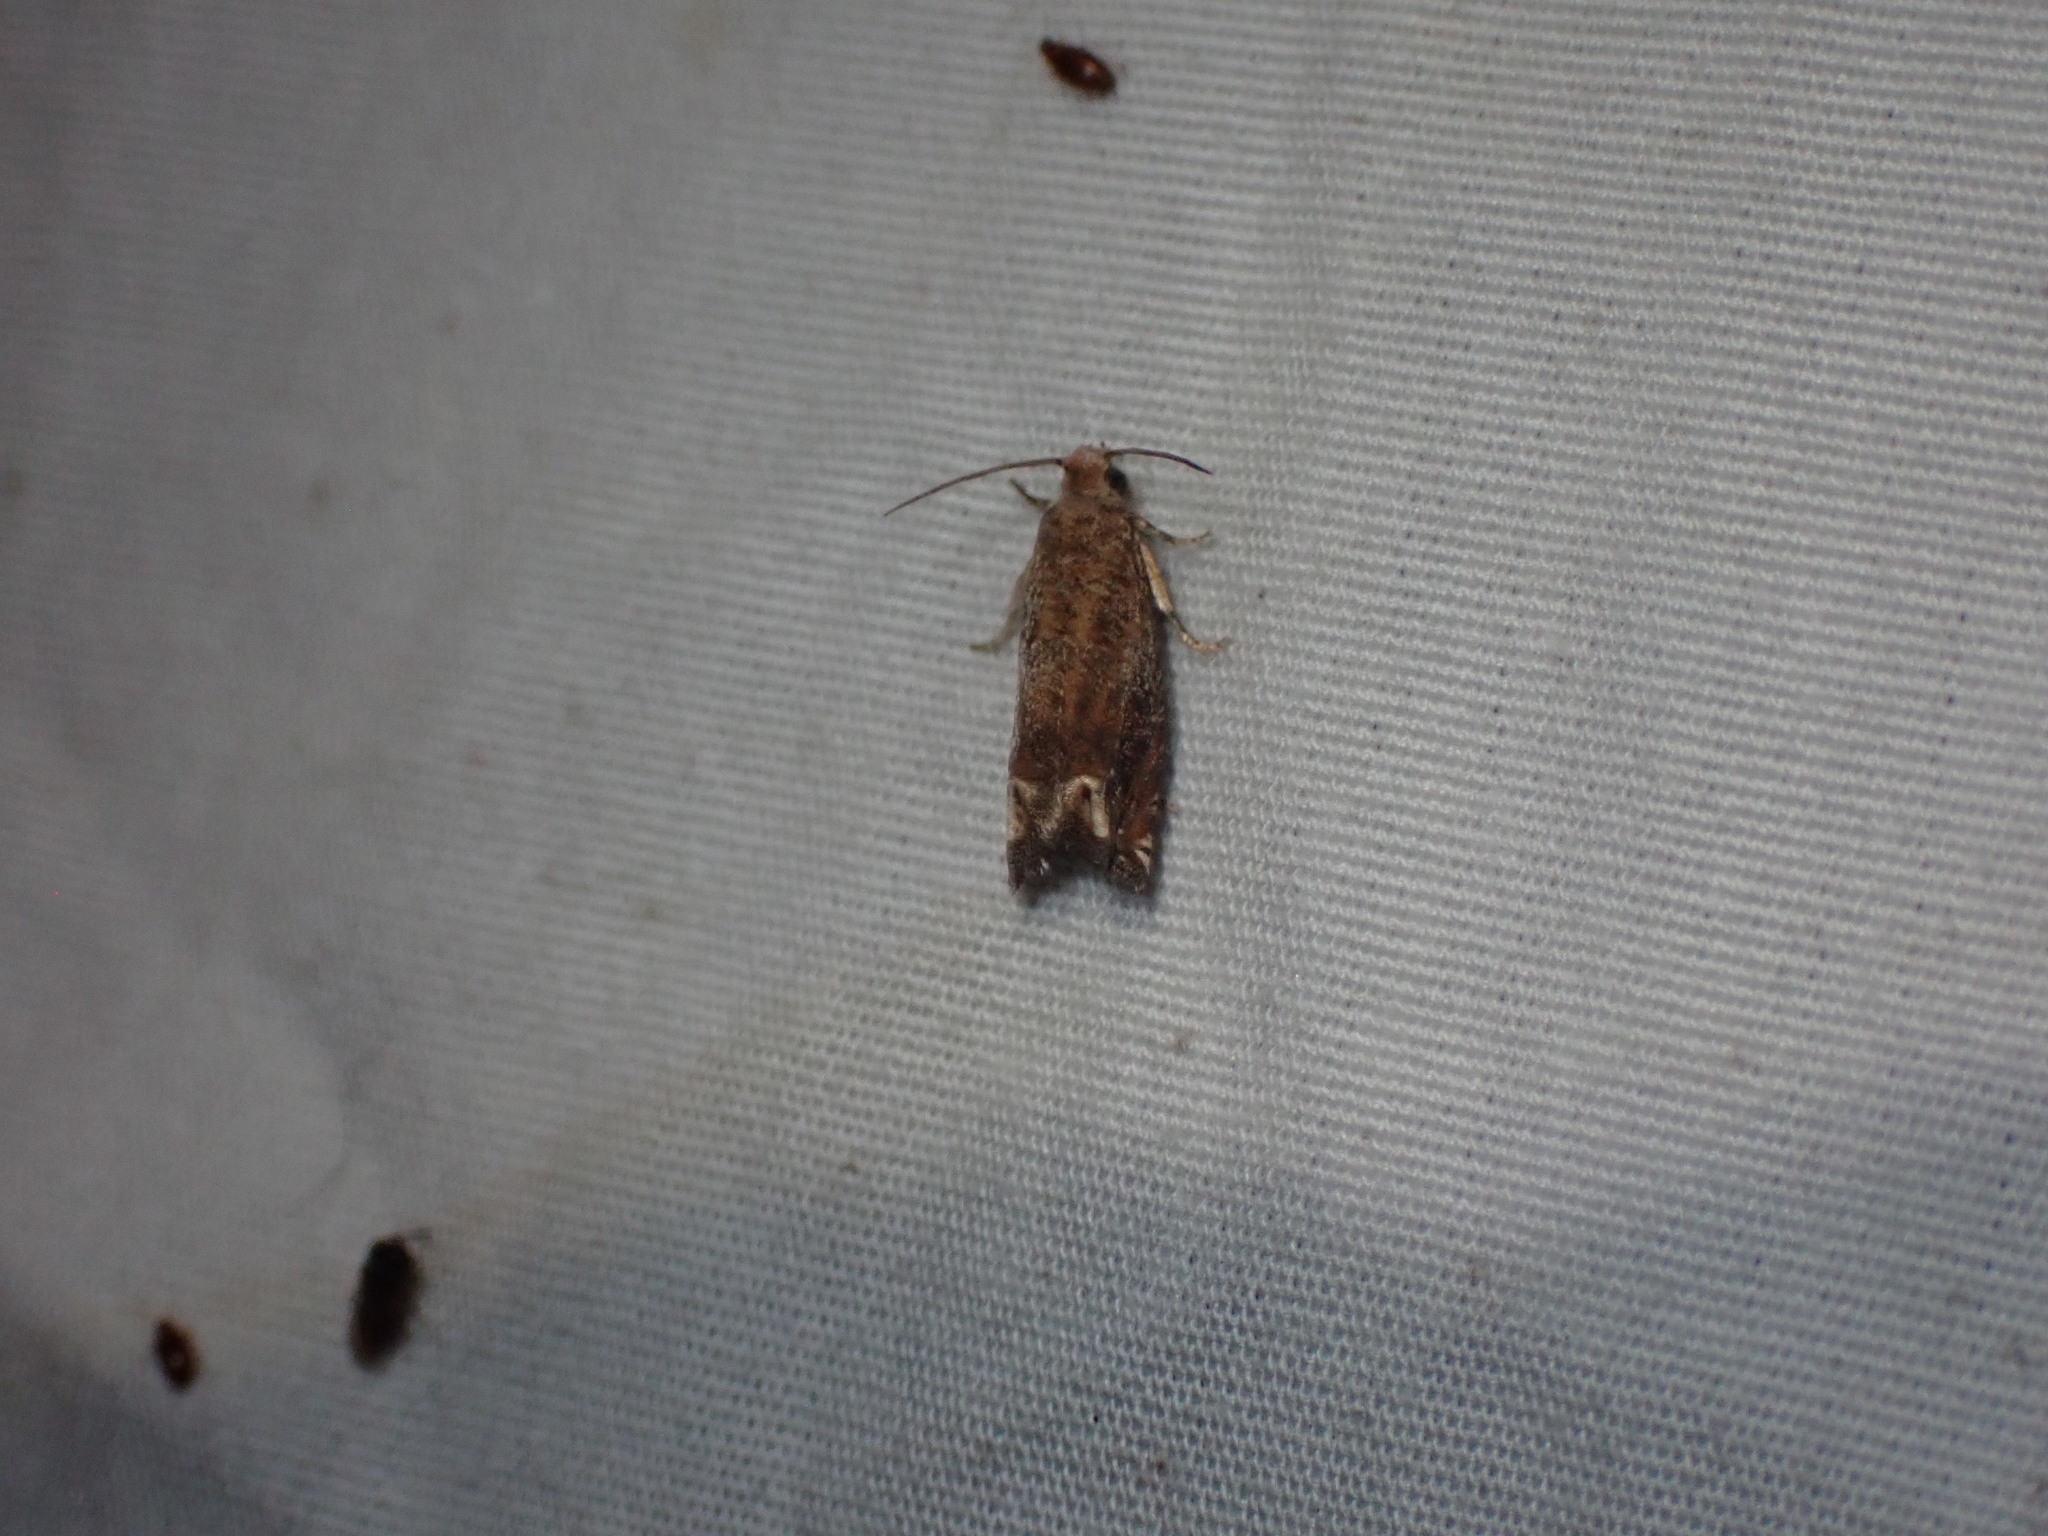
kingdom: Animalia
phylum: Arthropoda
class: Insecta
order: Lepidoptera
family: Tortricidae
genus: Epiblema
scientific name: Epiblema mandana
